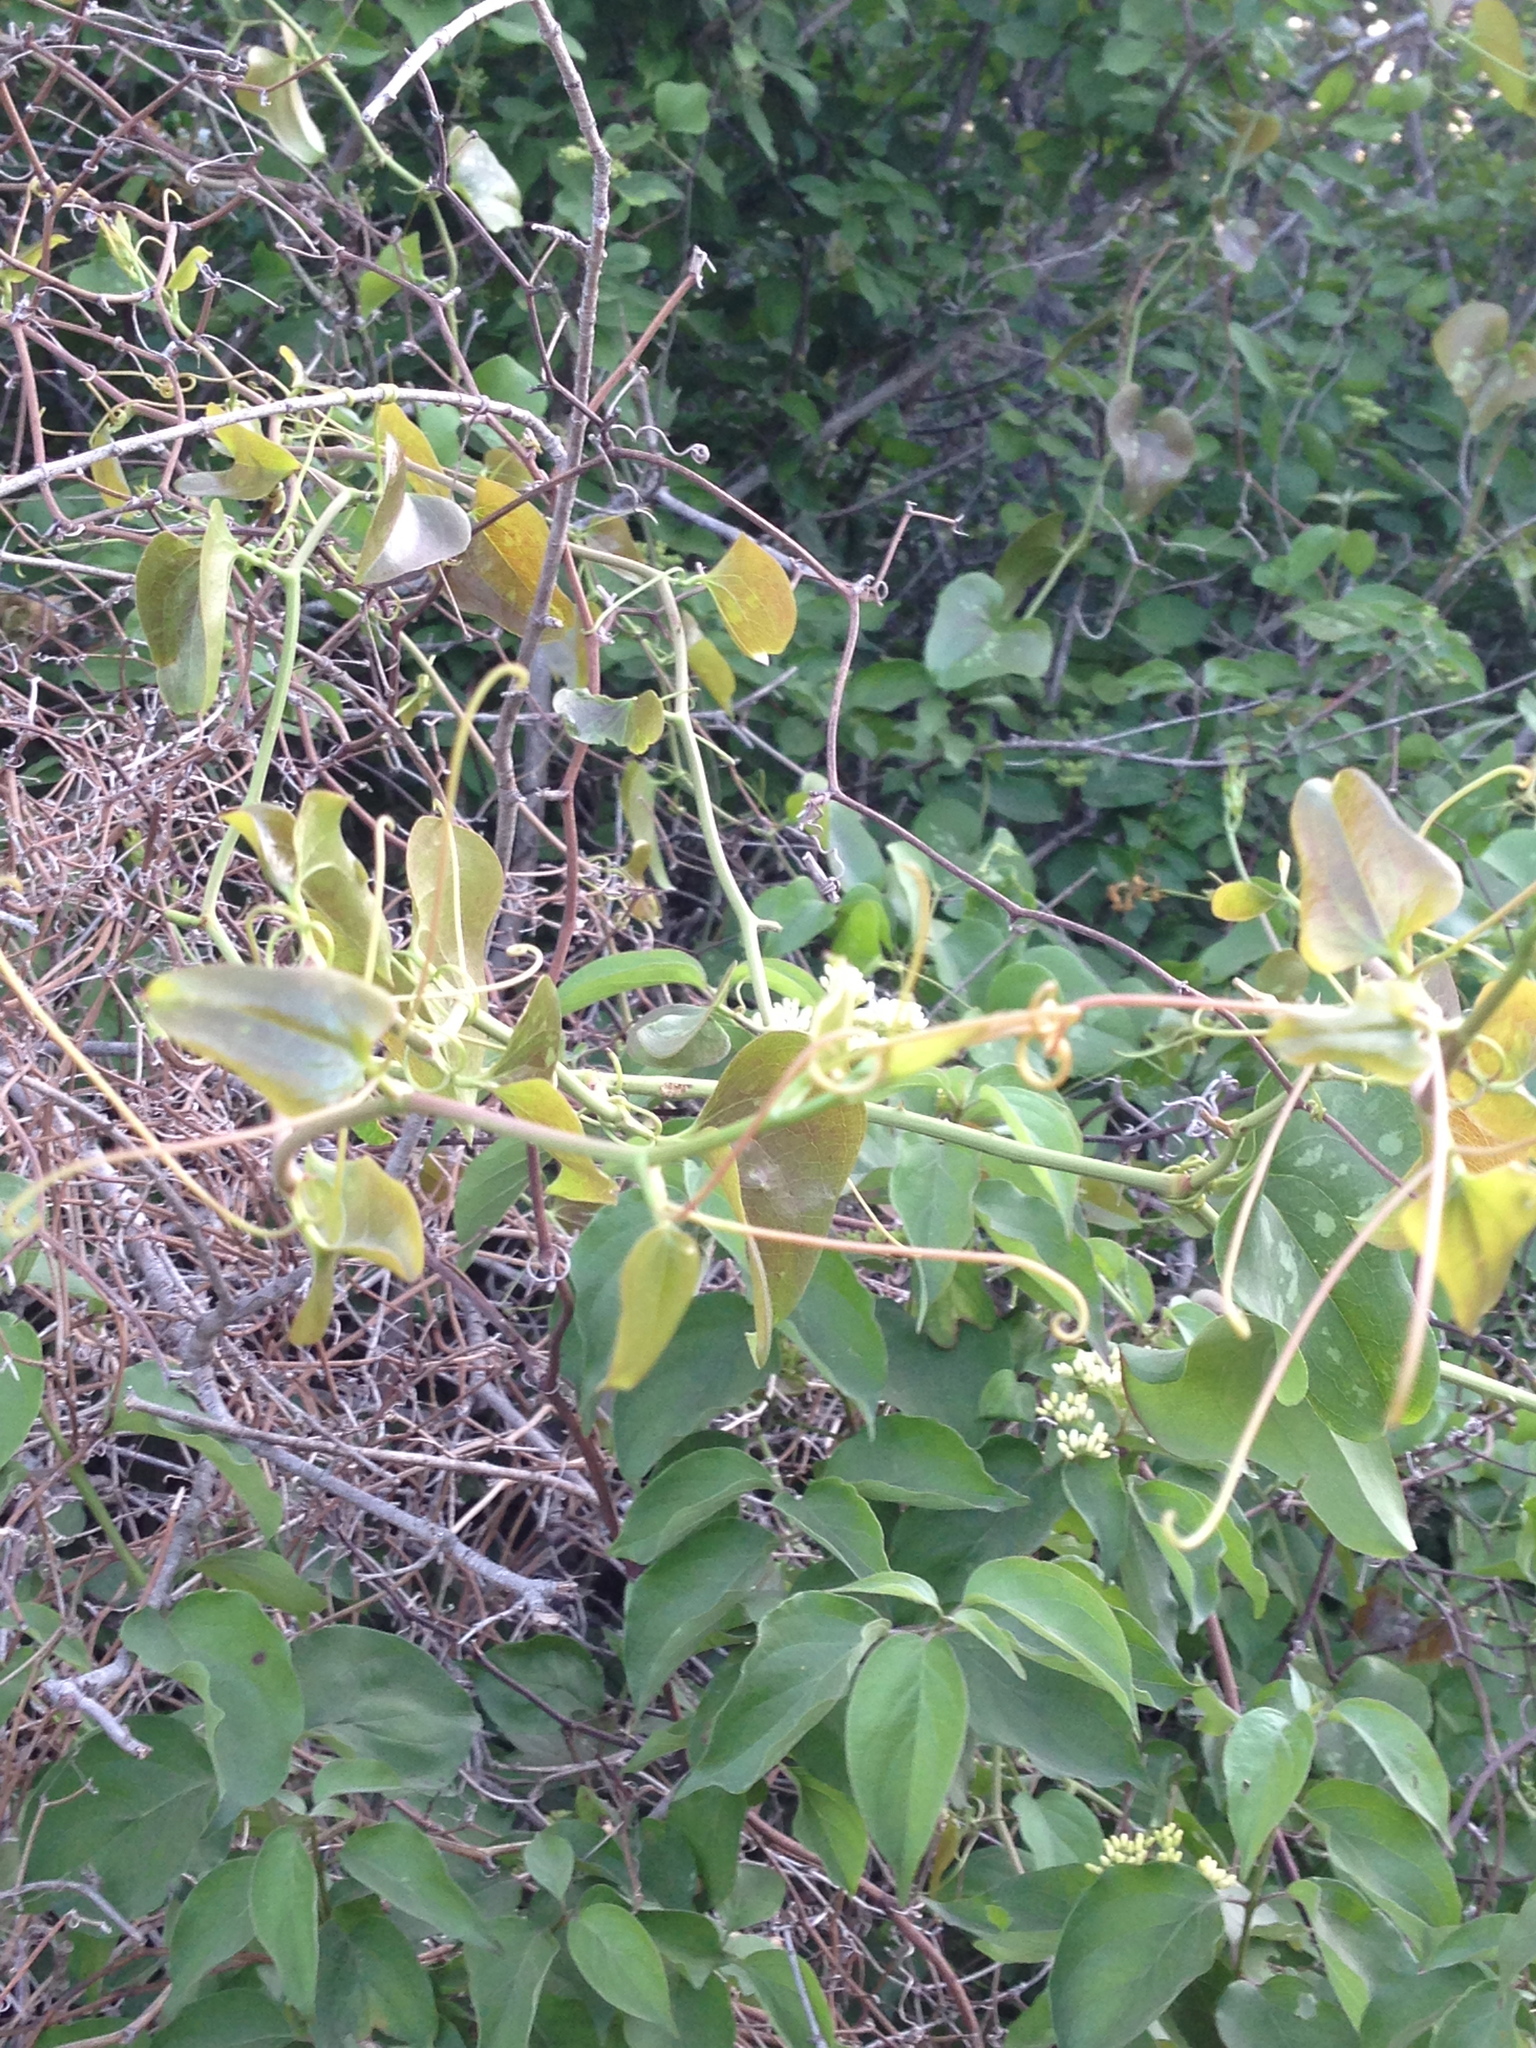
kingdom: Plantae
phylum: Tracheophyta
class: Liliopsida
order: Liliales
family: Smilacaceae
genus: Smilax
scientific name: Smilax bona-nox
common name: Catbrier
